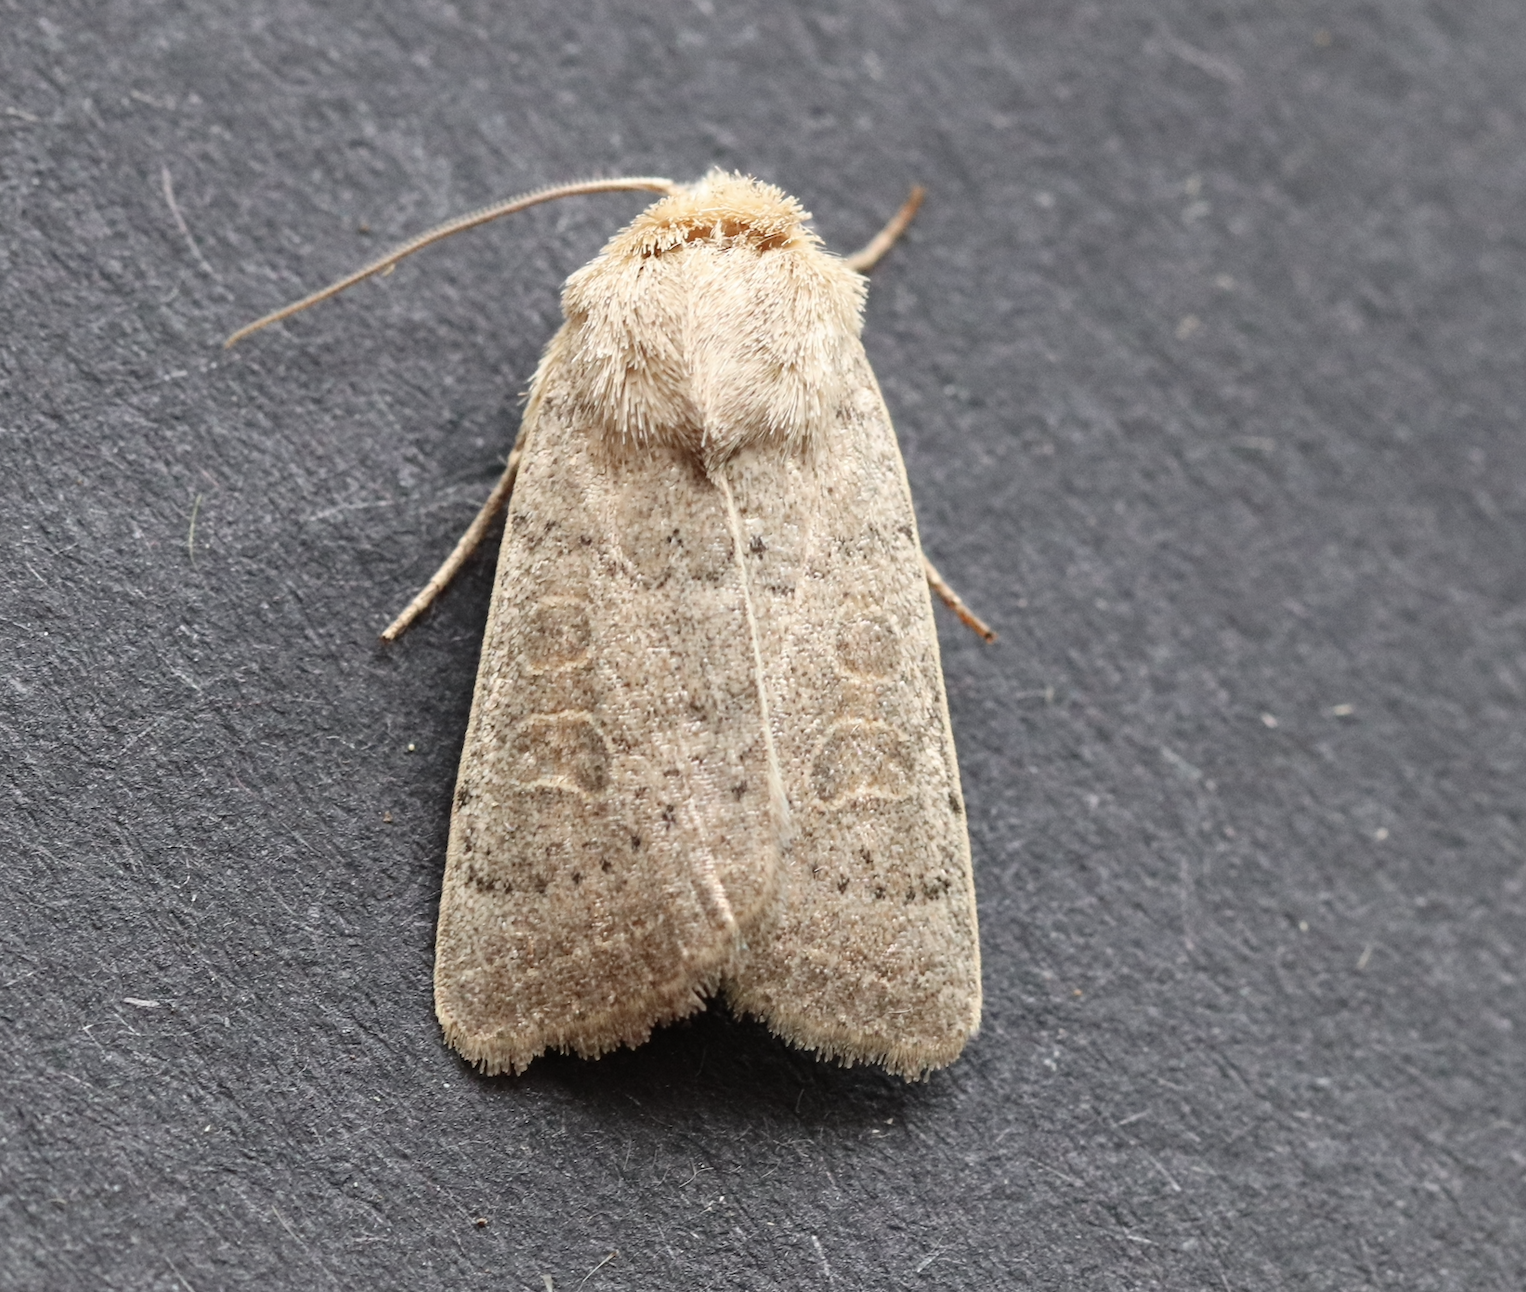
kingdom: Animalia
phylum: Arthropoda
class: Insecta
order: Lepidoptera
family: Noctuidae
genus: Hoplodrina
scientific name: Hoplodrina ambigua
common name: Vine's rustic
